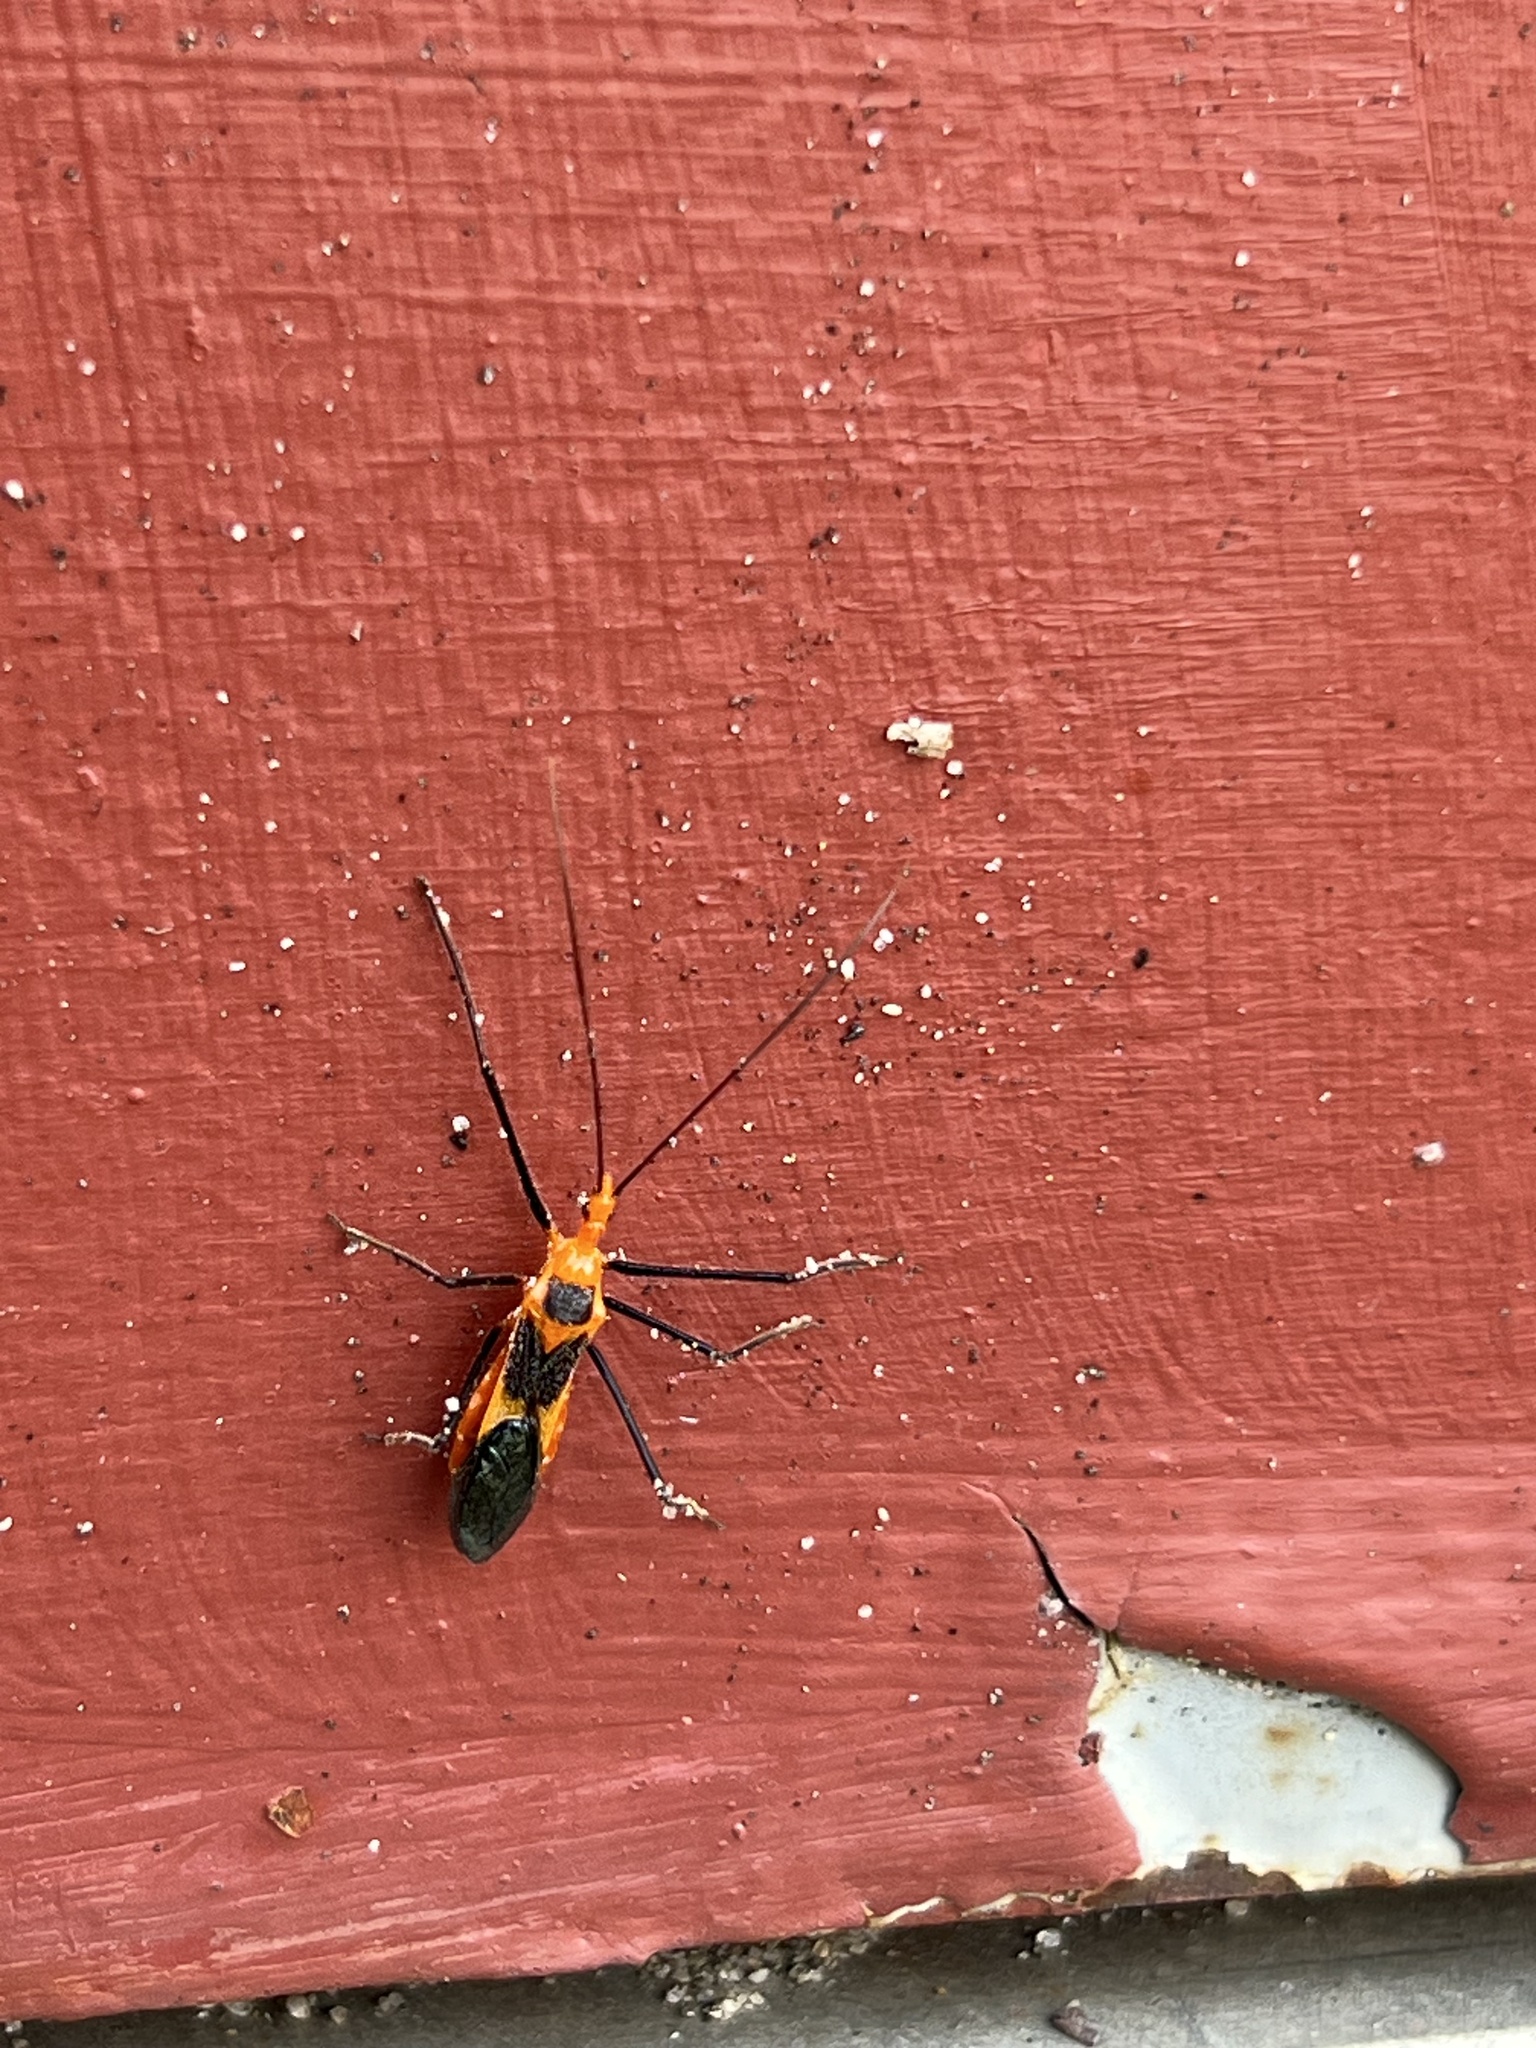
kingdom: Animalia
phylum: Arthropoda
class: Insecta
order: Hemiptera
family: Reduviidae
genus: Zelus
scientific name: Zelus longipes
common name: Milkweed assassin bug
